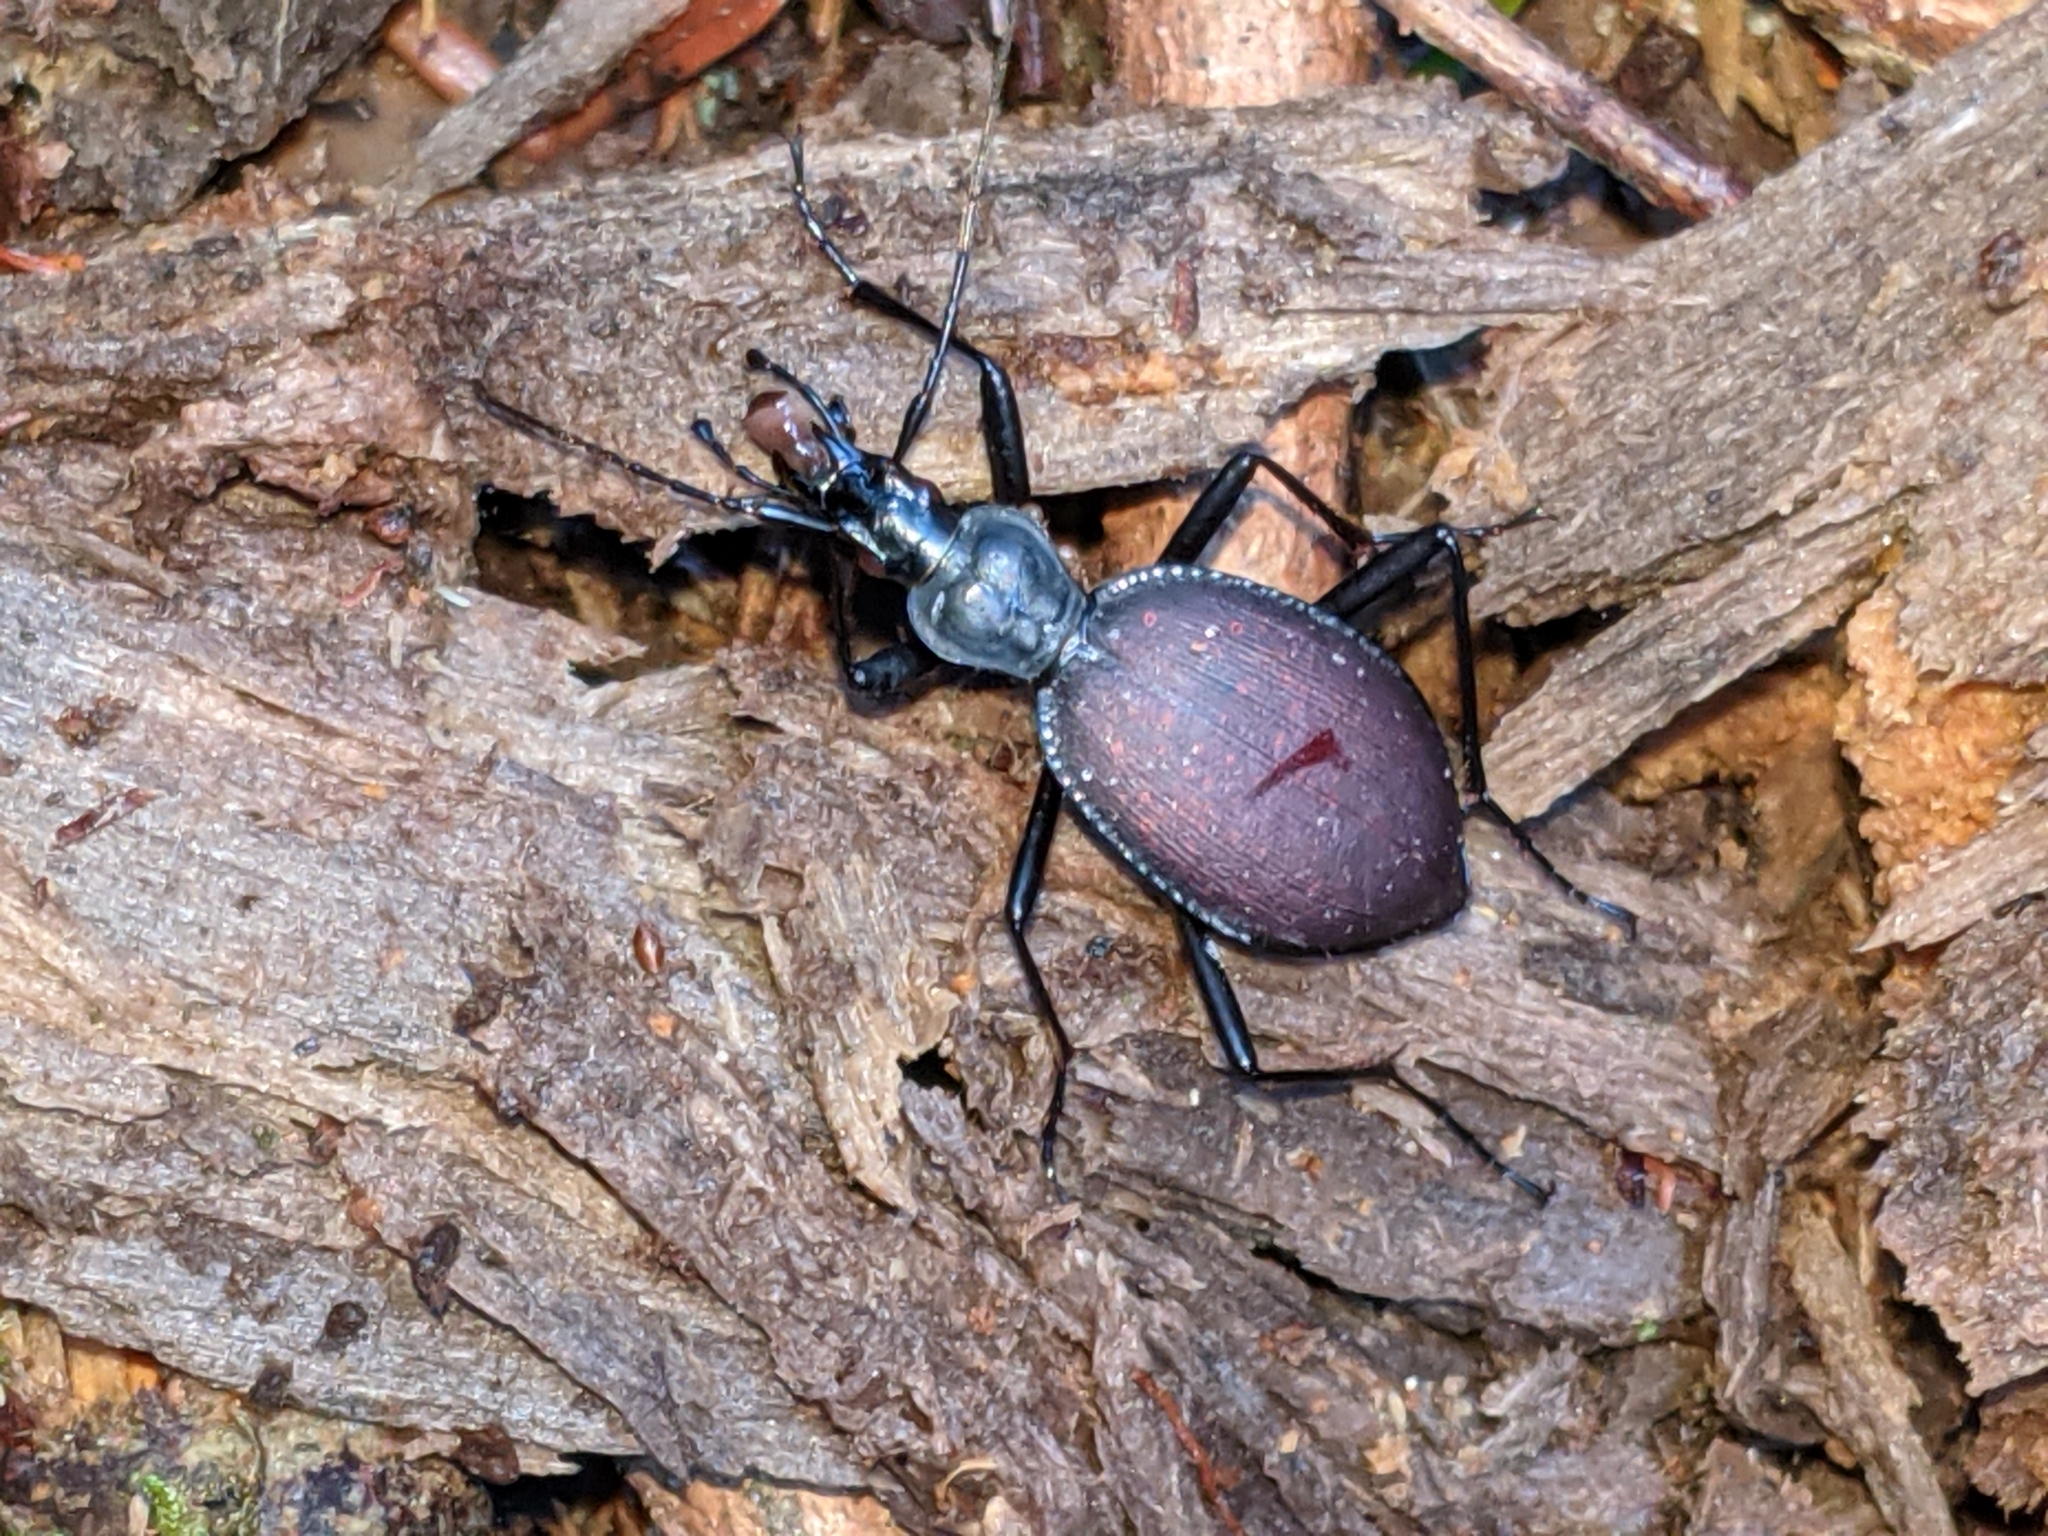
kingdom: Animalia
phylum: Arthropoda
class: Insecta
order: Coleoptera
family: Carabidae
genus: Scaphinotus
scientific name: Scaphinotus angusticollis
